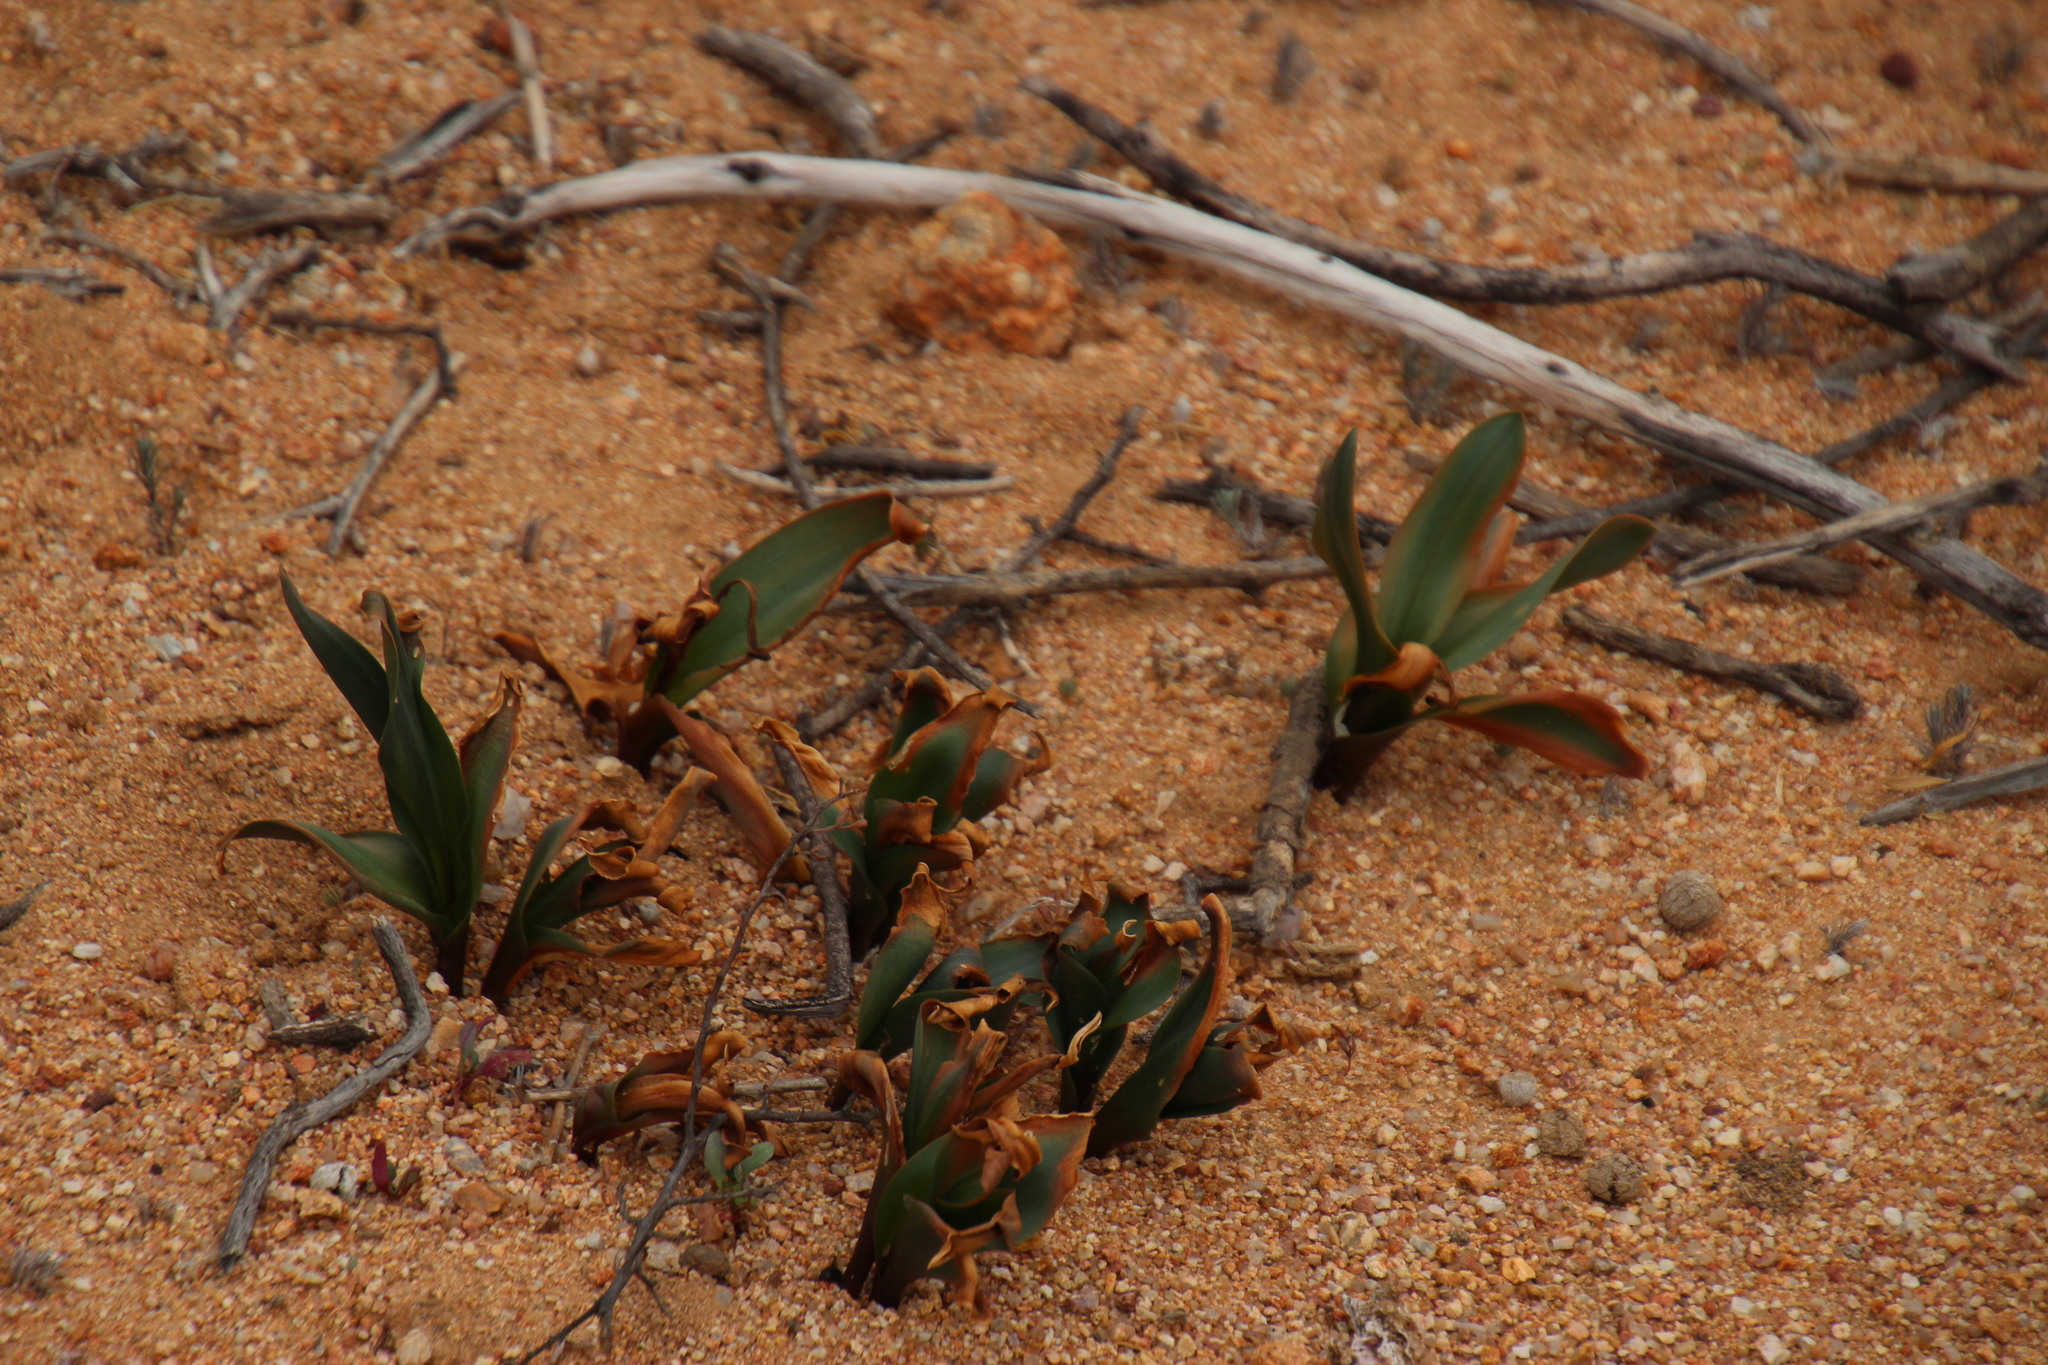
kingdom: Plantae
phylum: Tracheophyta
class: Liliopsida
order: Asparagales
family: Asparagaceae
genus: Fusifilum
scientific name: Fusifilum physodes
